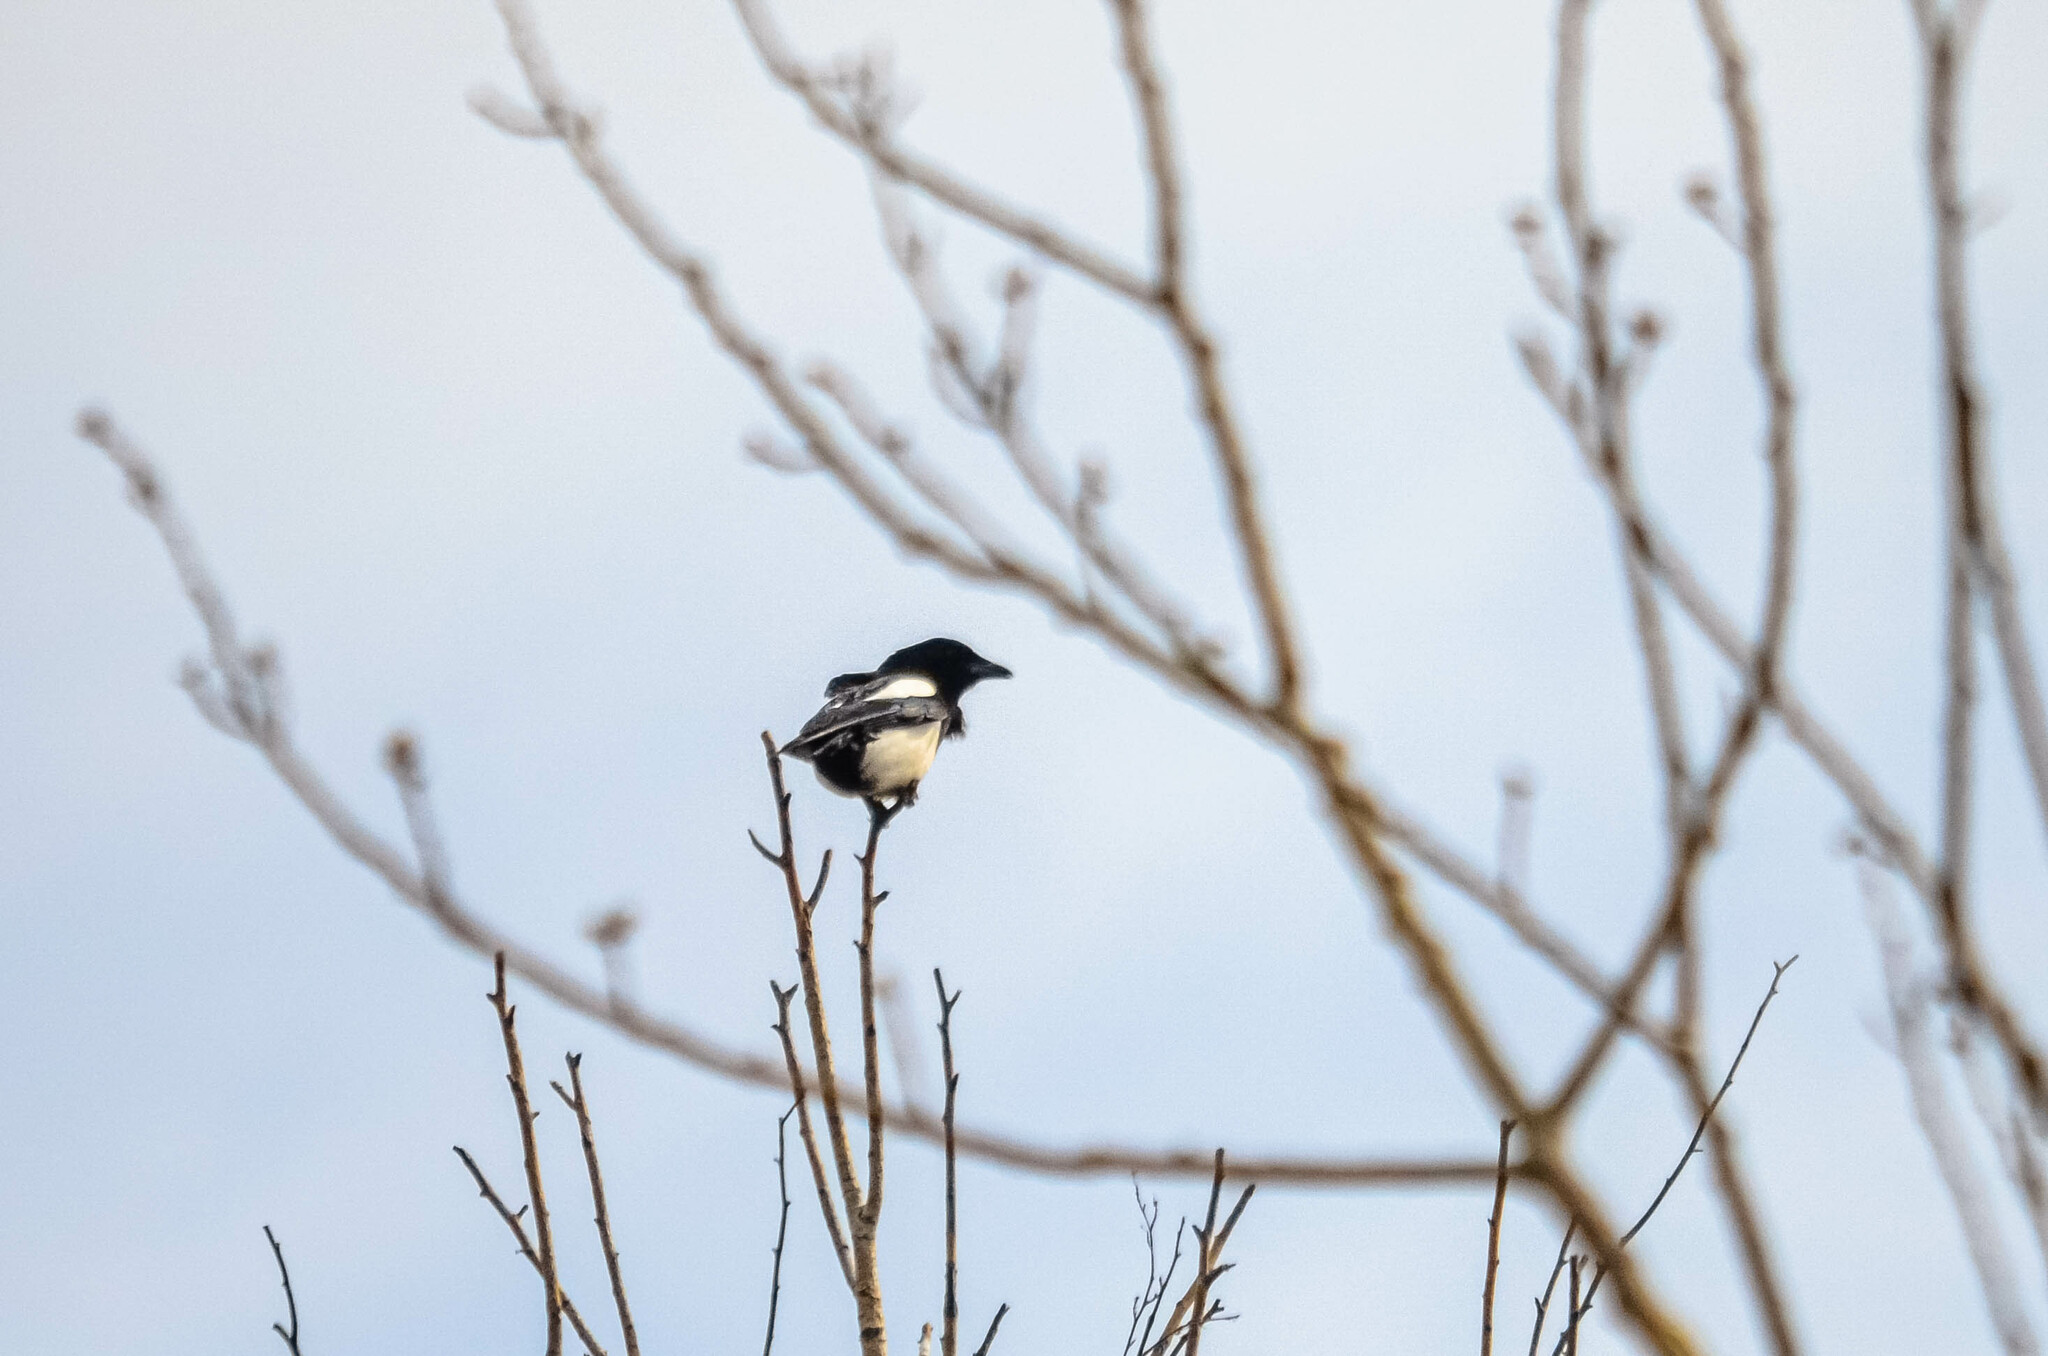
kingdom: Animalia
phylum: Chordata
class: Aves
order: Passeriformes
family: Corvidae
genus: Pica
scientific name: Pica pica
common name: Eurasian magpie
